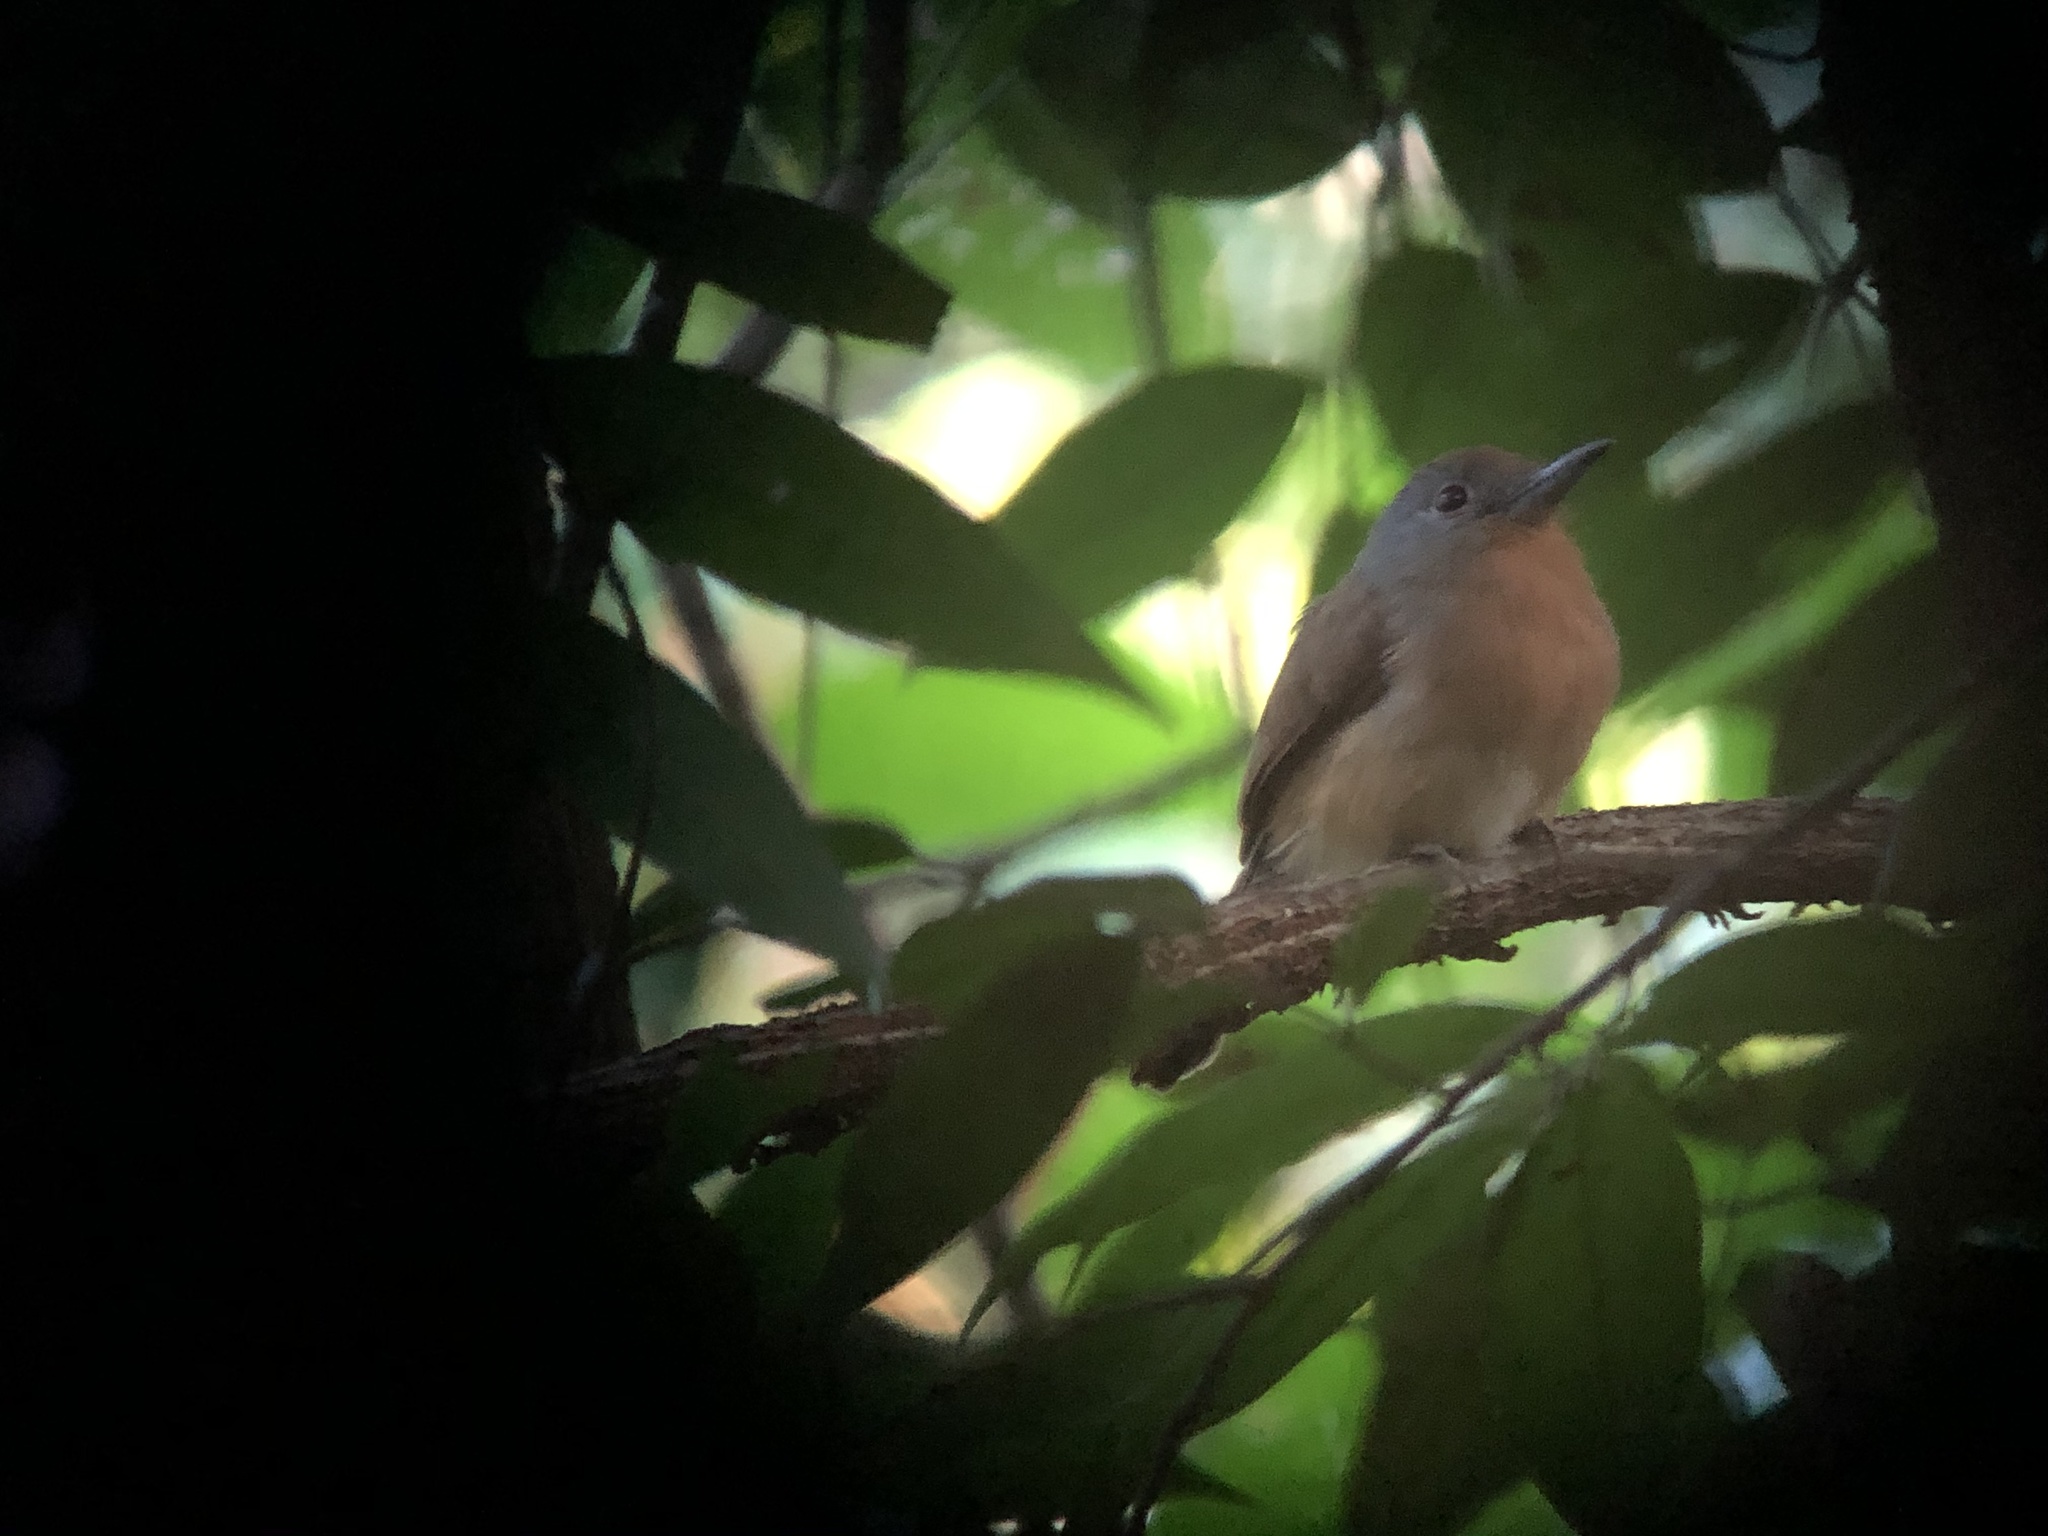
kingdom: Animalia
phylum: Chordata
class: Aves
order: Piciformes
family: Bucconidae
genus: Nonnula
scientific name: Nonnula frontalis
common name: Grey-cheeked nunlet
